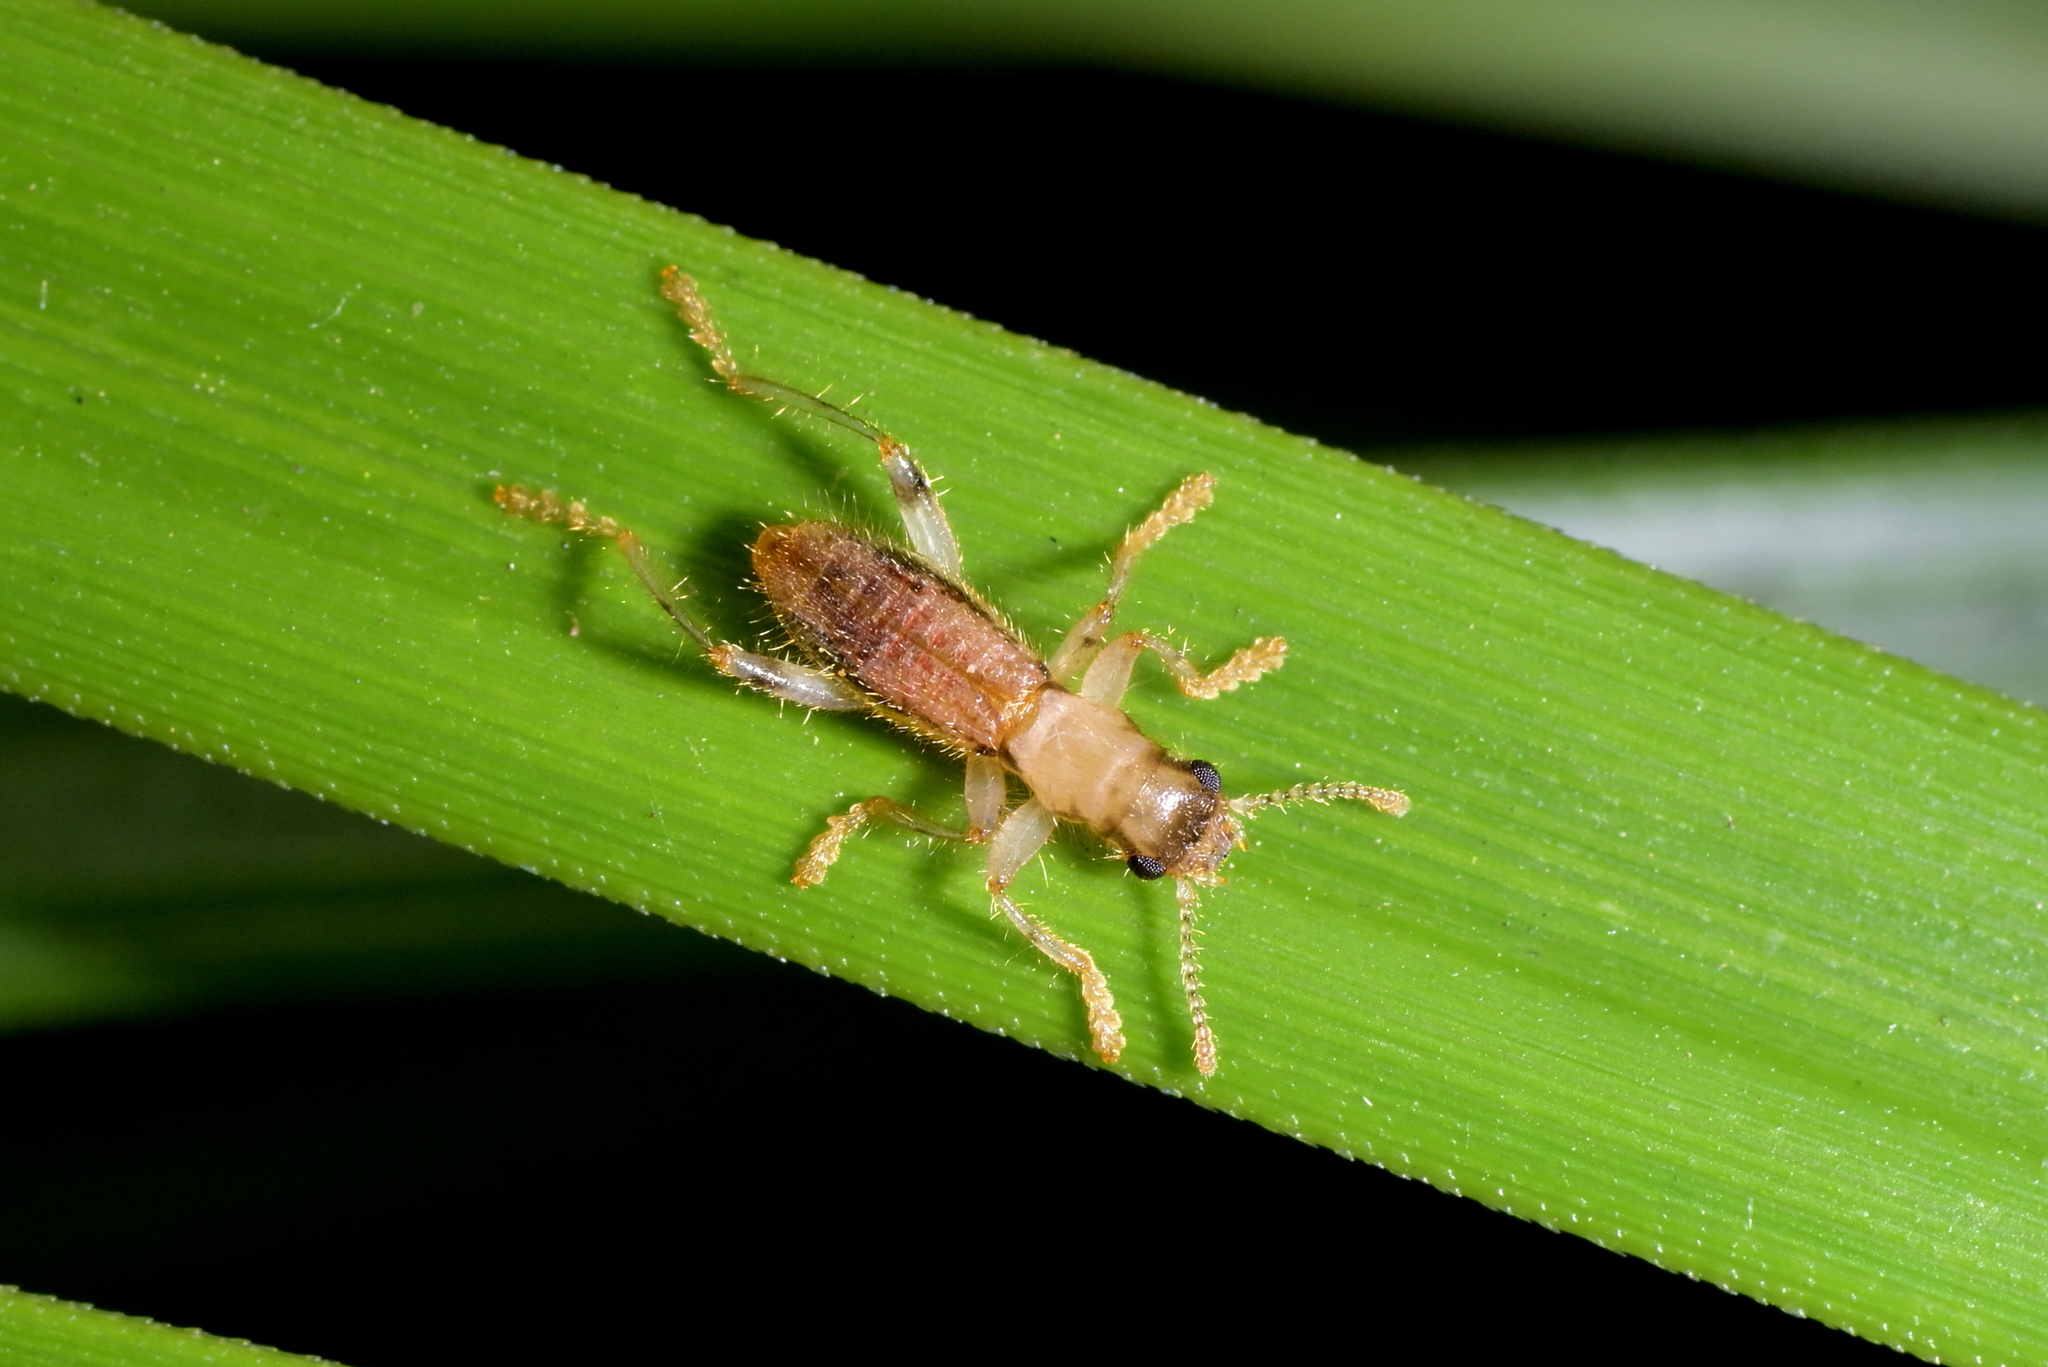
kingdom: Animalia
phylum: Arthropoda
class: Insecta
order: Coleoptera
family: Cleridae
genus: Lemidia
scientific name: Lemidia
